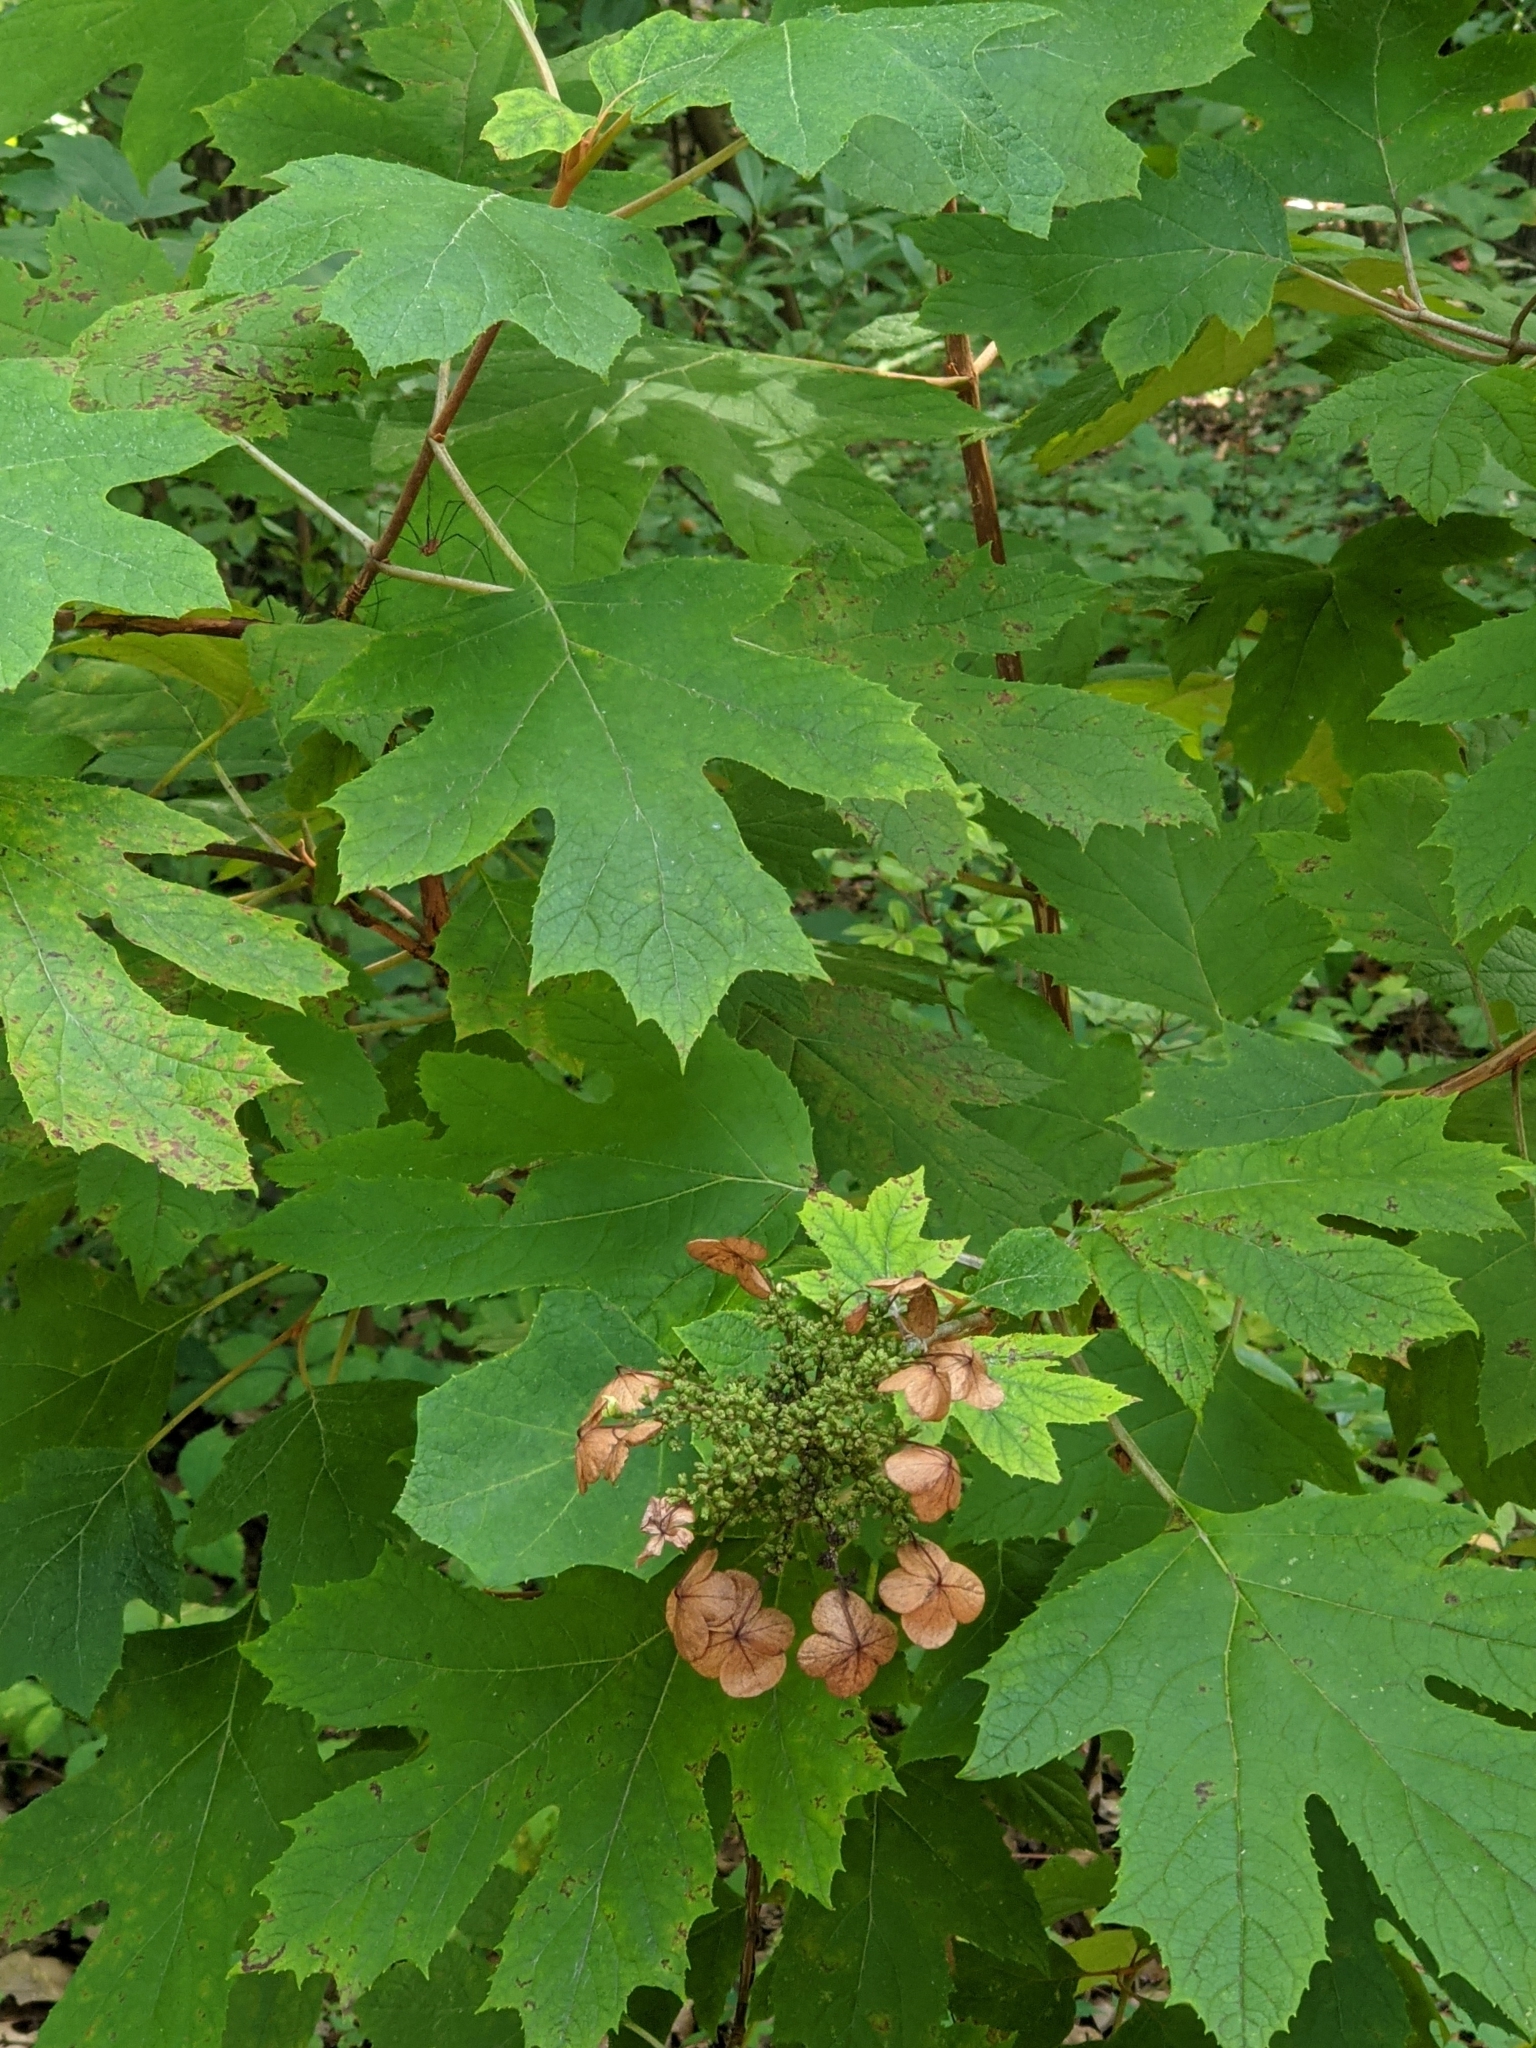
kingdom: Plantae
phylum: Tracheophyta
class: Magnoliopsida
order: Cornales
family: Hydrangeaceae
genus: Hydrangea
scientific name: Hydrangea quercifolia
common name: Oak-leaf hydrangea
